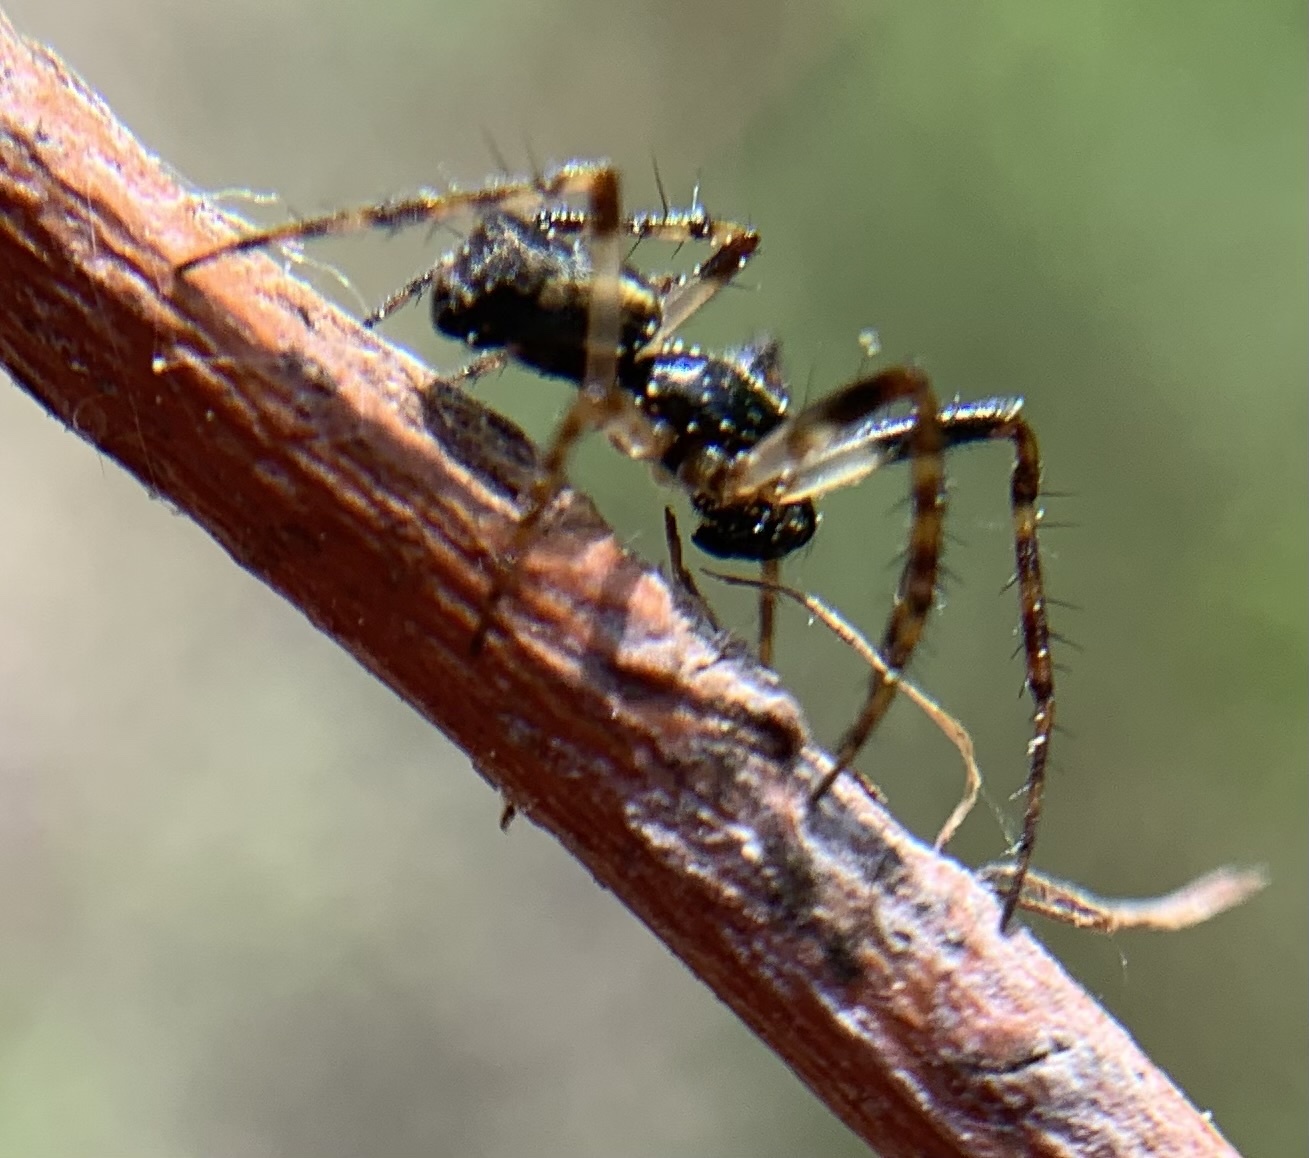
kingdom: Animalia
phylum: Arthropoda
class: Arachnida
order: Araneae
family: Araneidae
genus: Cyclosa
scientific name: Cyclosa conica
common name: Conical trashline orbweaver
